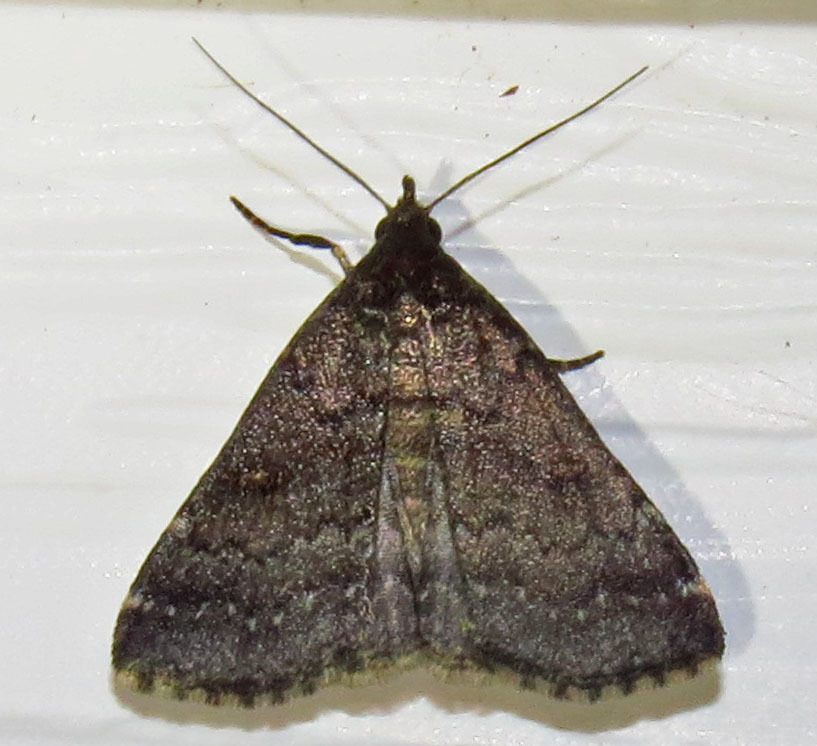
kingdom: Animalia
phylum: Arthropoda
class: Insecta
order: Lepidoptera
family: Erebidae
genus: Tetanolita
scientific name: Tetanolita mynesalis
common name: Smoky tetanolita moth
